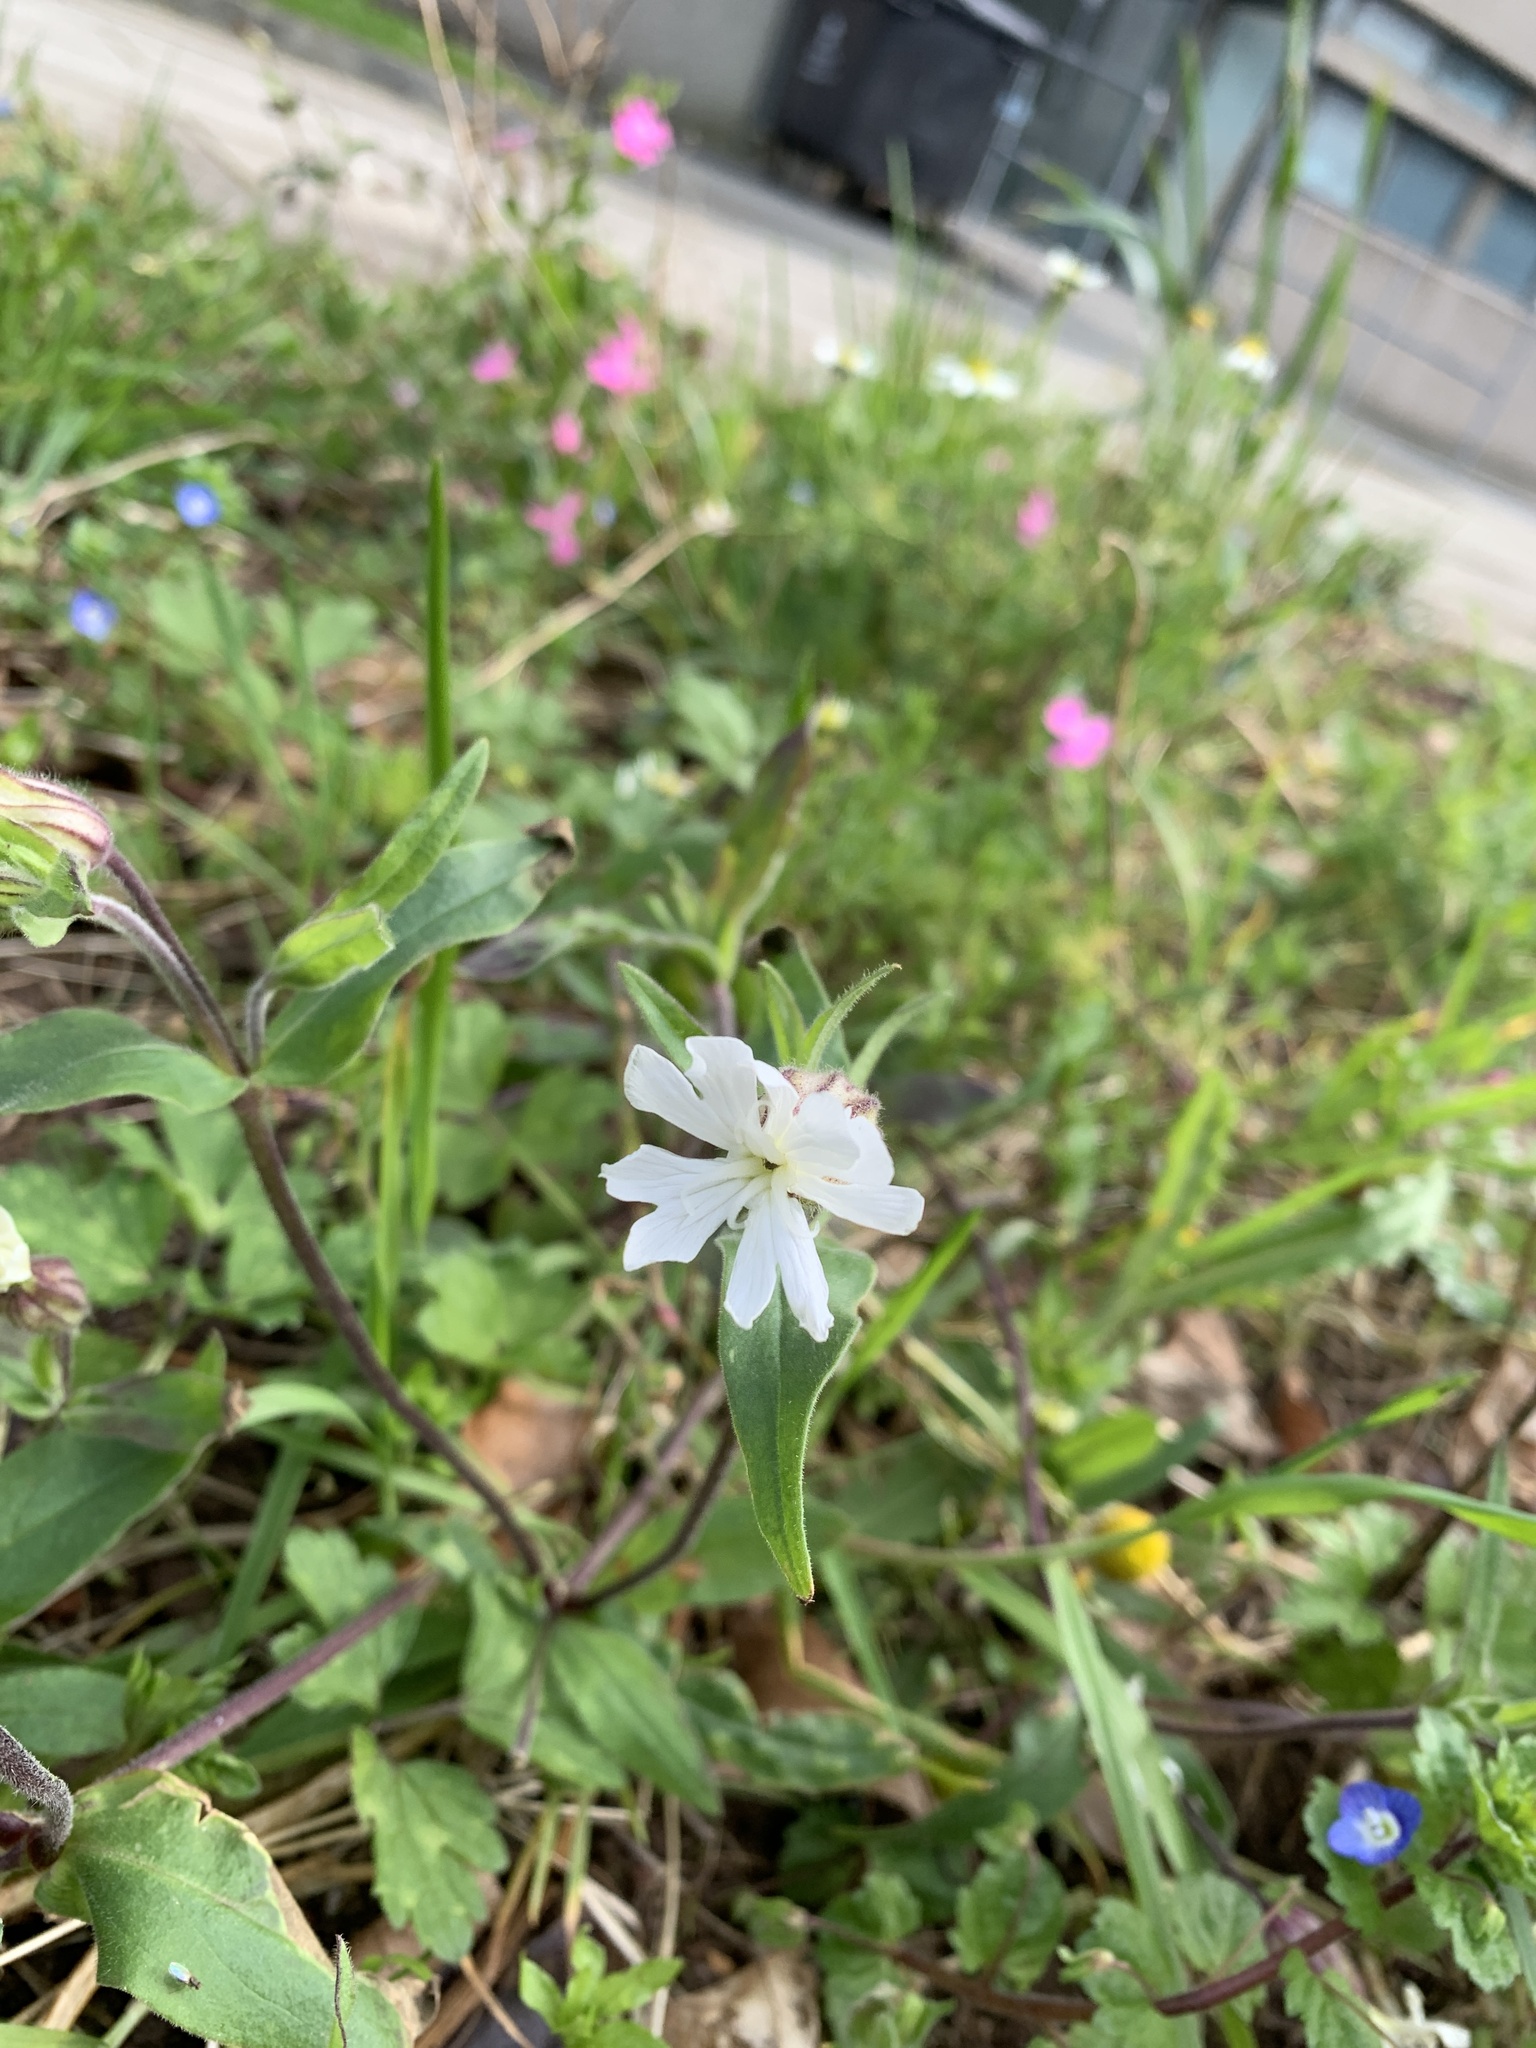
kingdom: Plantae
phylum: Tracheophyta
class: Magnoliopsida
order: Caryophyllales
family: Caryophyllaceae
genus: Silene
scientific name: Silene latifolia
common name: White campion
